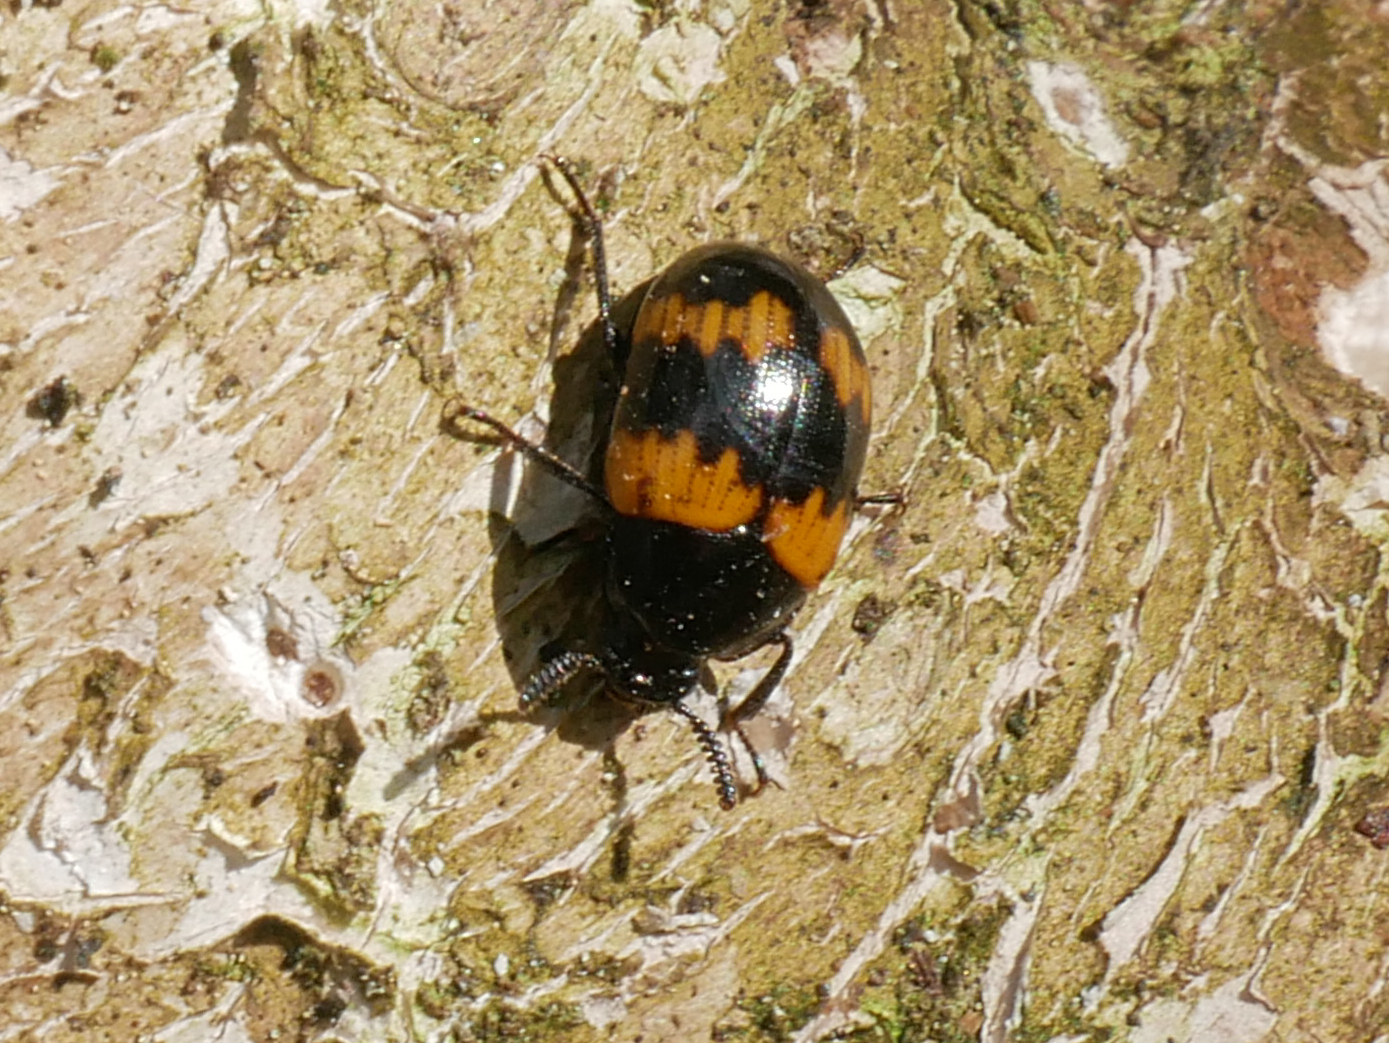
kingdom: Animalia
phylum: Arthropoda
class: Insecta
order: Coleoptera
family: Tenebrionidae
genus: Diaperis
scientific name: Diaperis boleti
